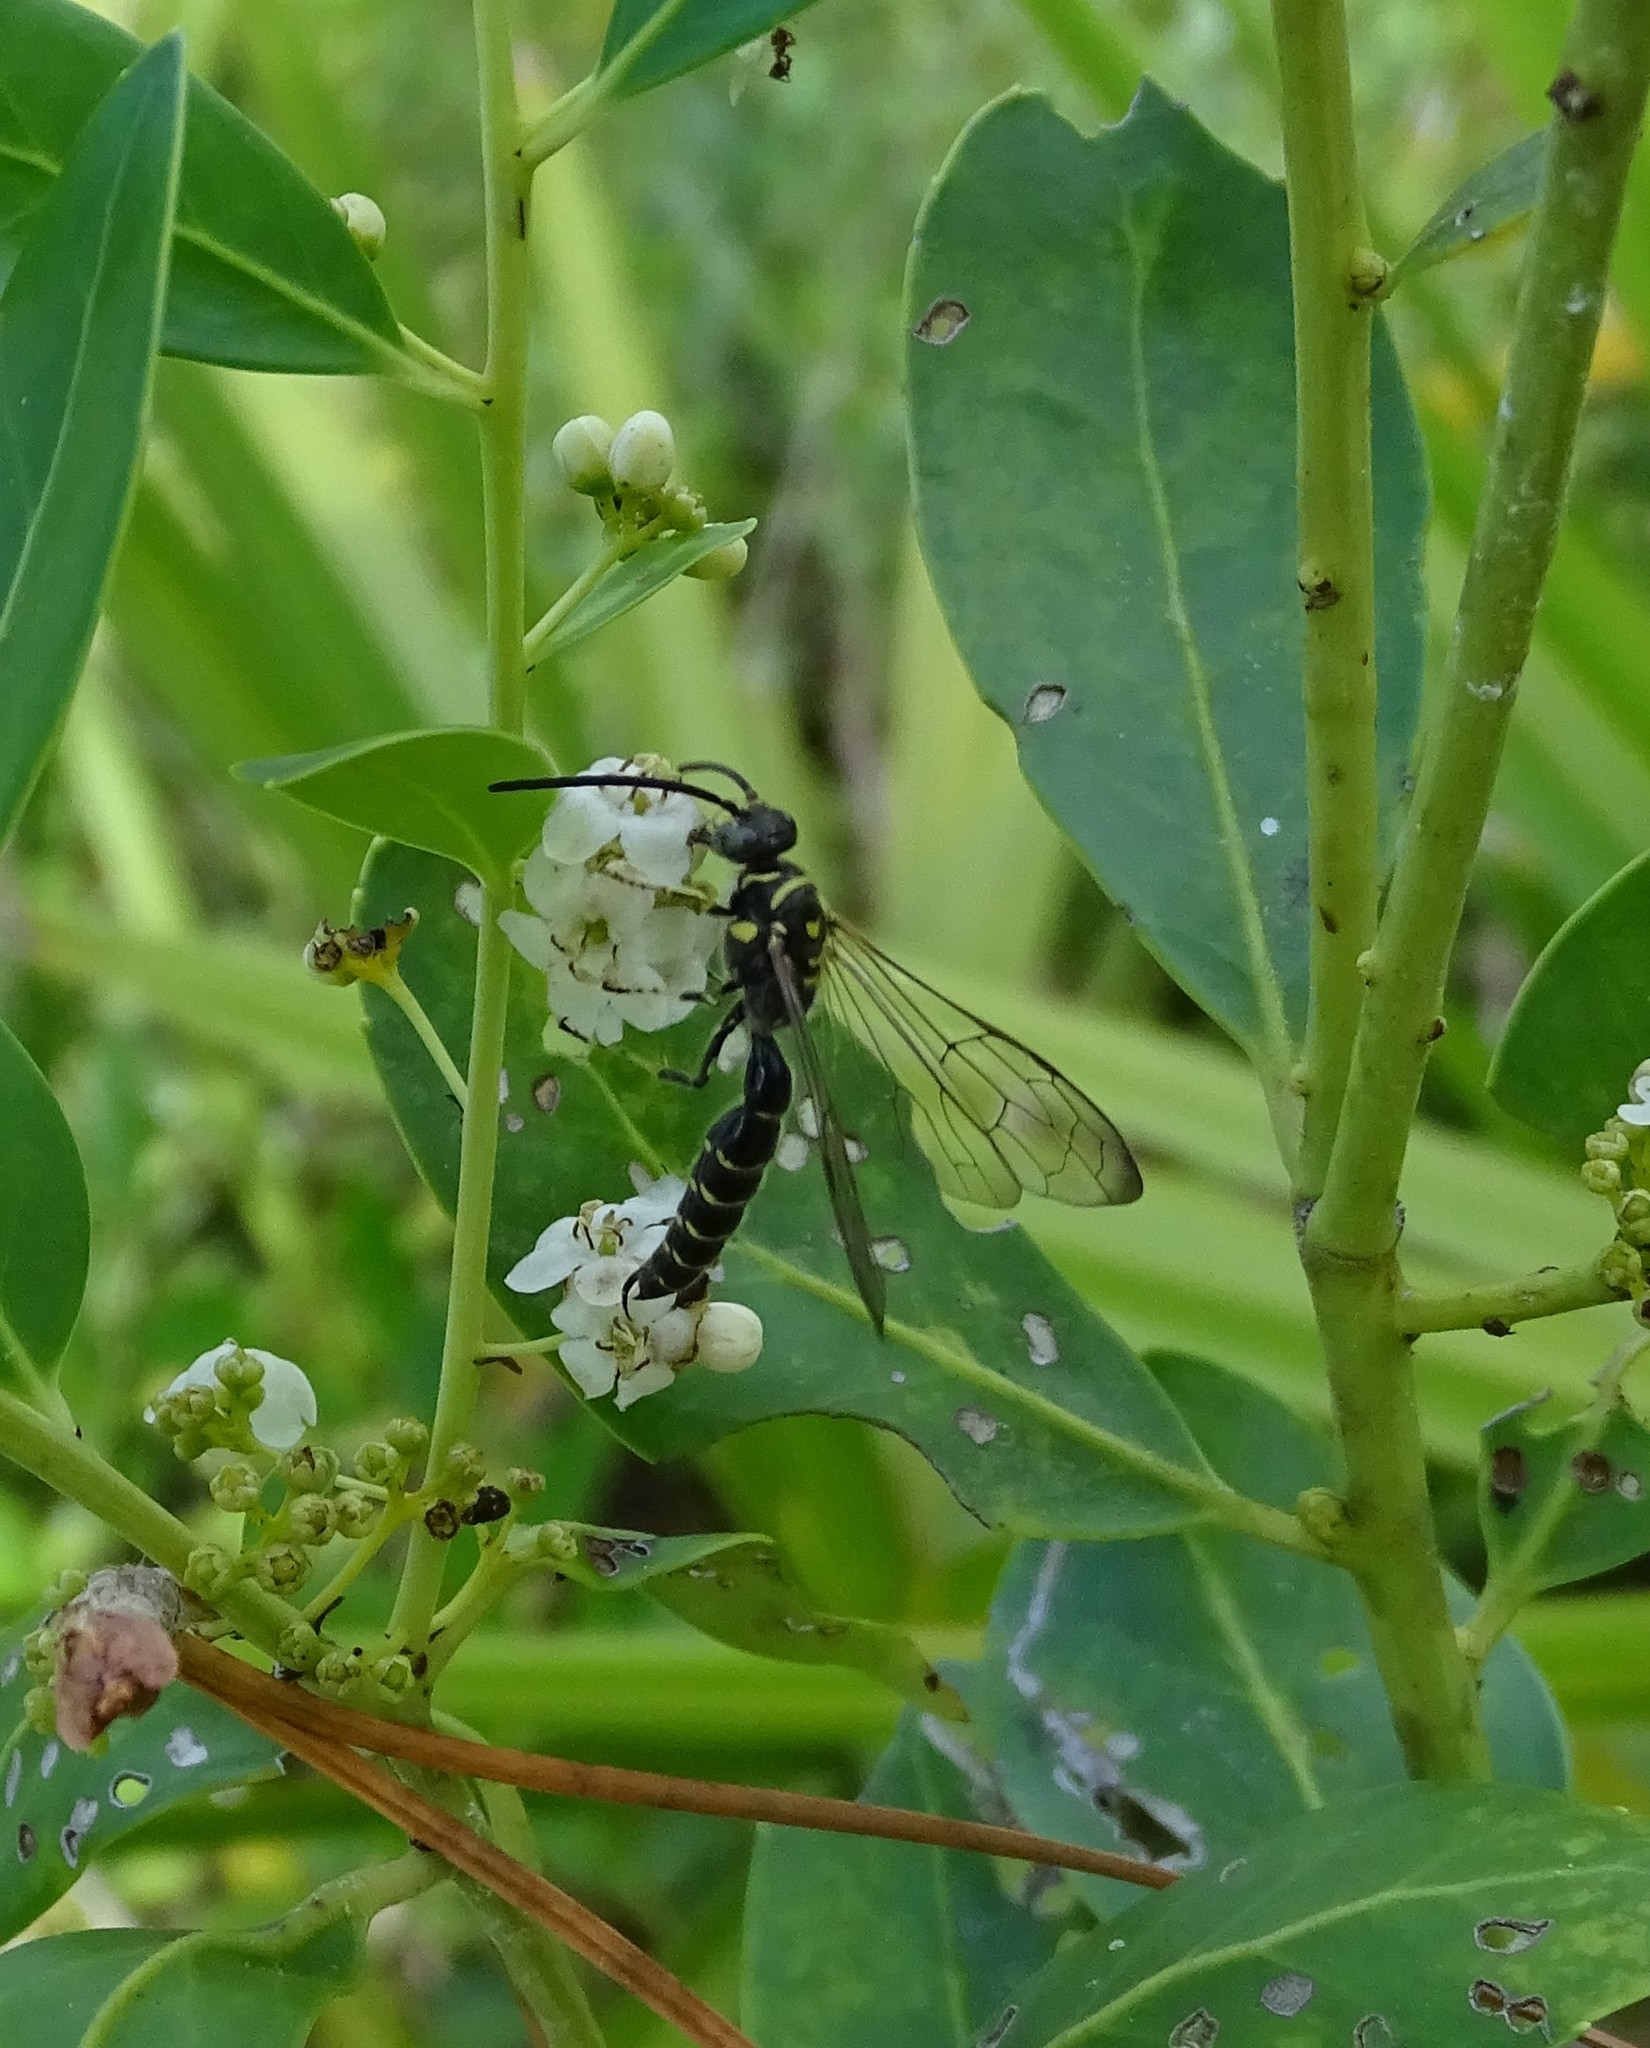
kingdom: Animalia
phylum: Arthropoda
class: Insecta
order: Hymenoptera
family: Tiphiidae
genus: Myzinum
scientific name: Myzinum
